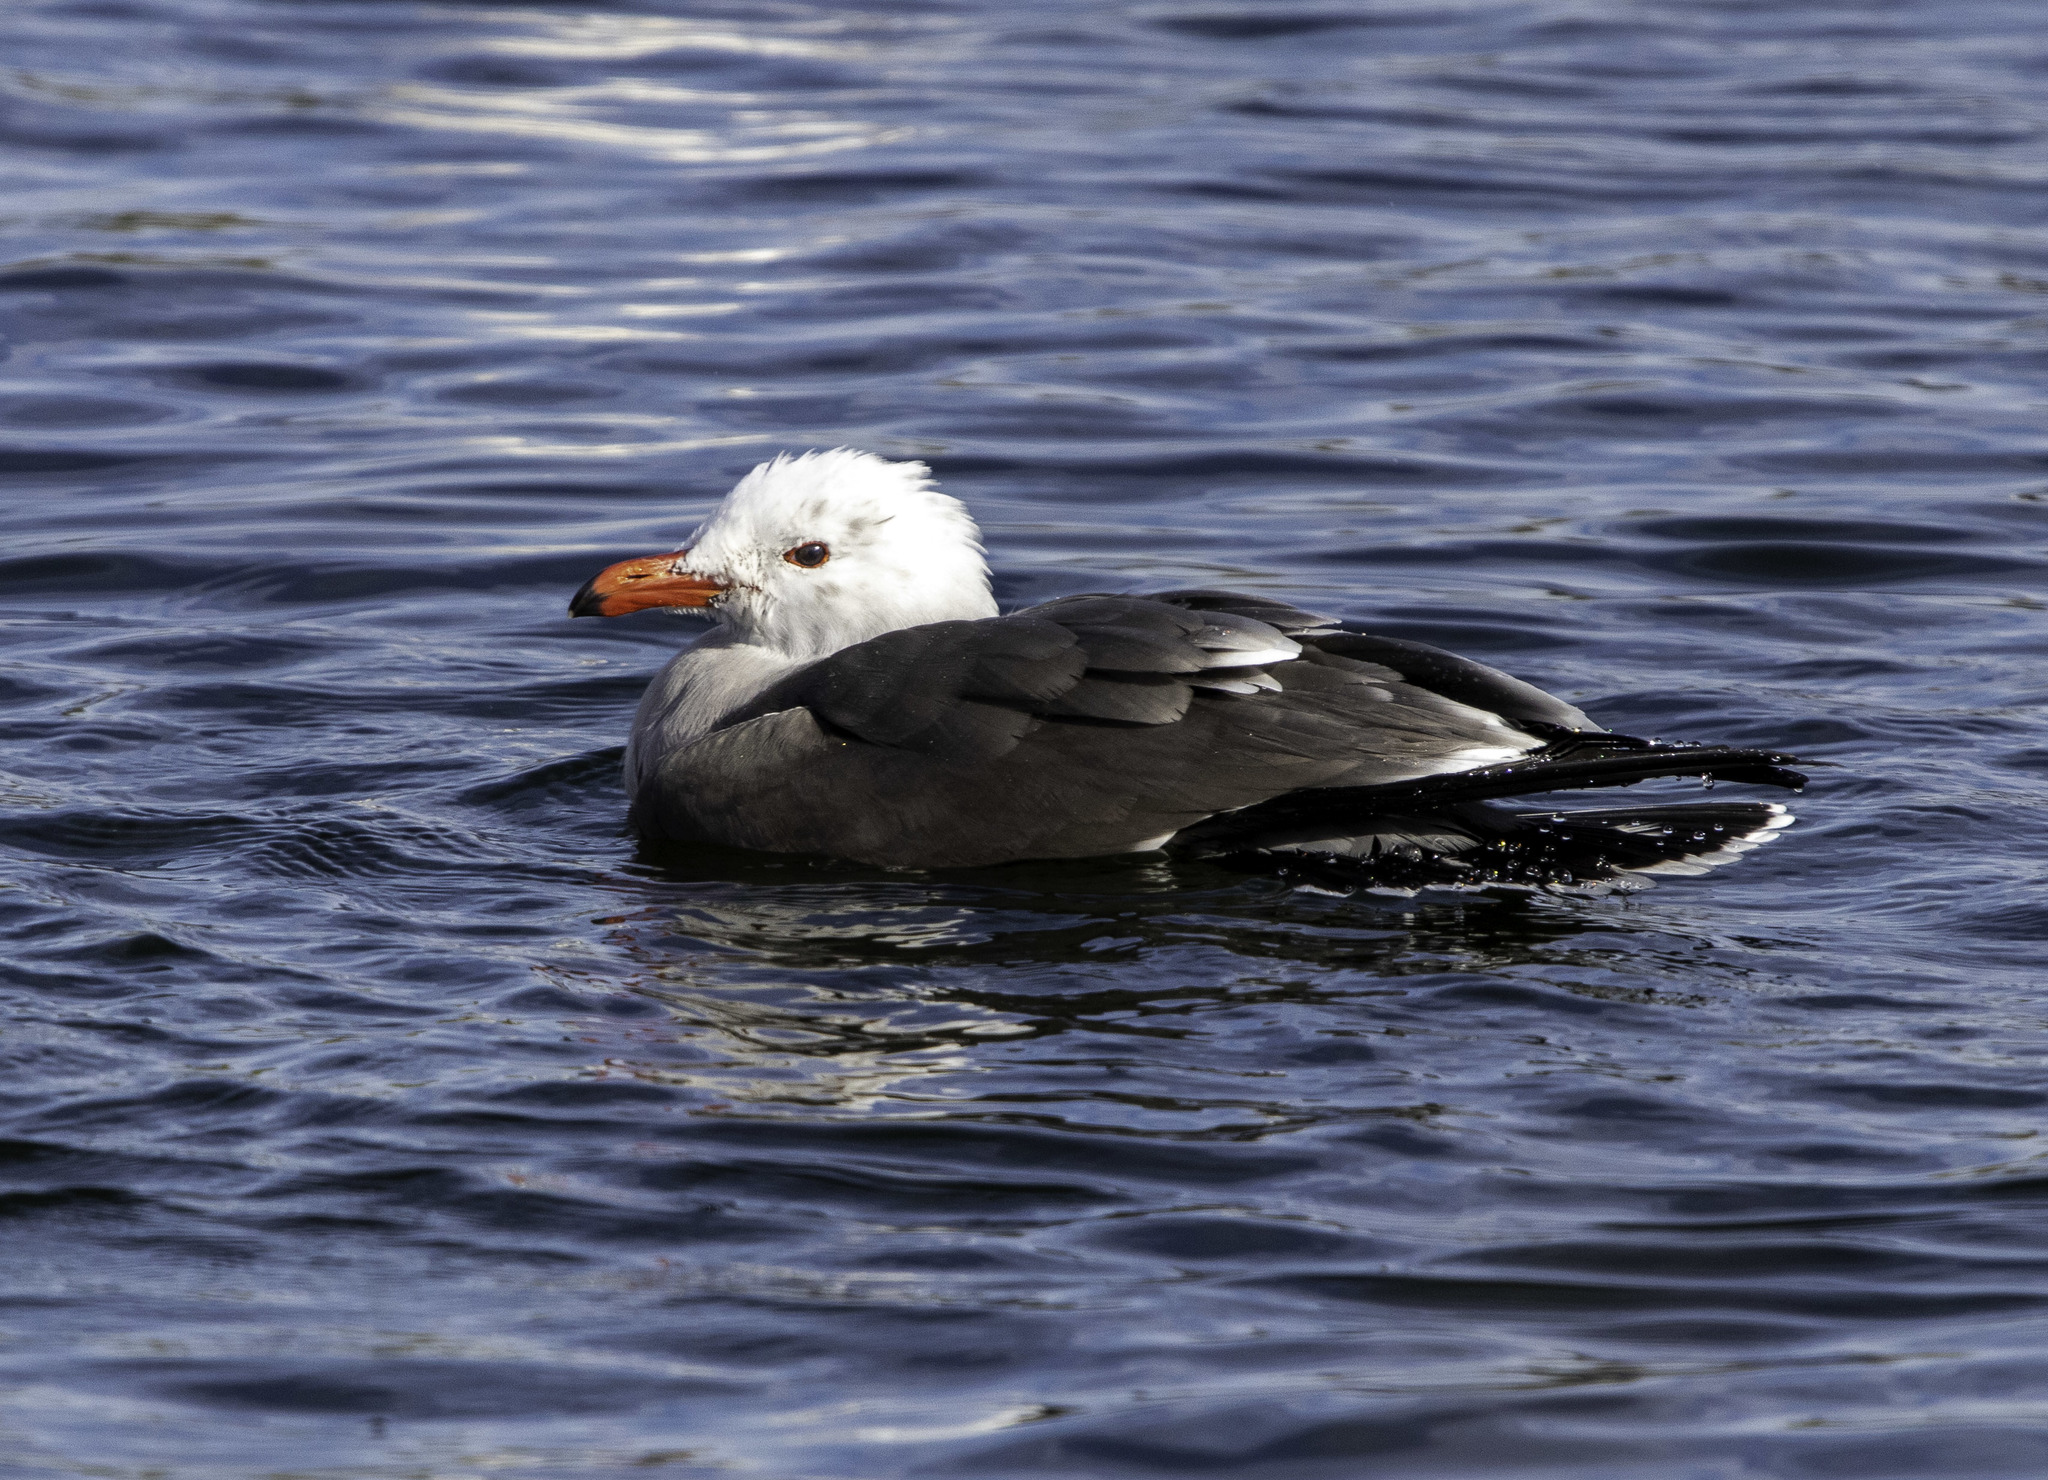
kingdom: Animalia
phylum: Chordata
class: Aves
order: Charadriiformes
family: Laridae
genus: Larus
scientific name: Larus heermanni
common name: Heermann's gull
